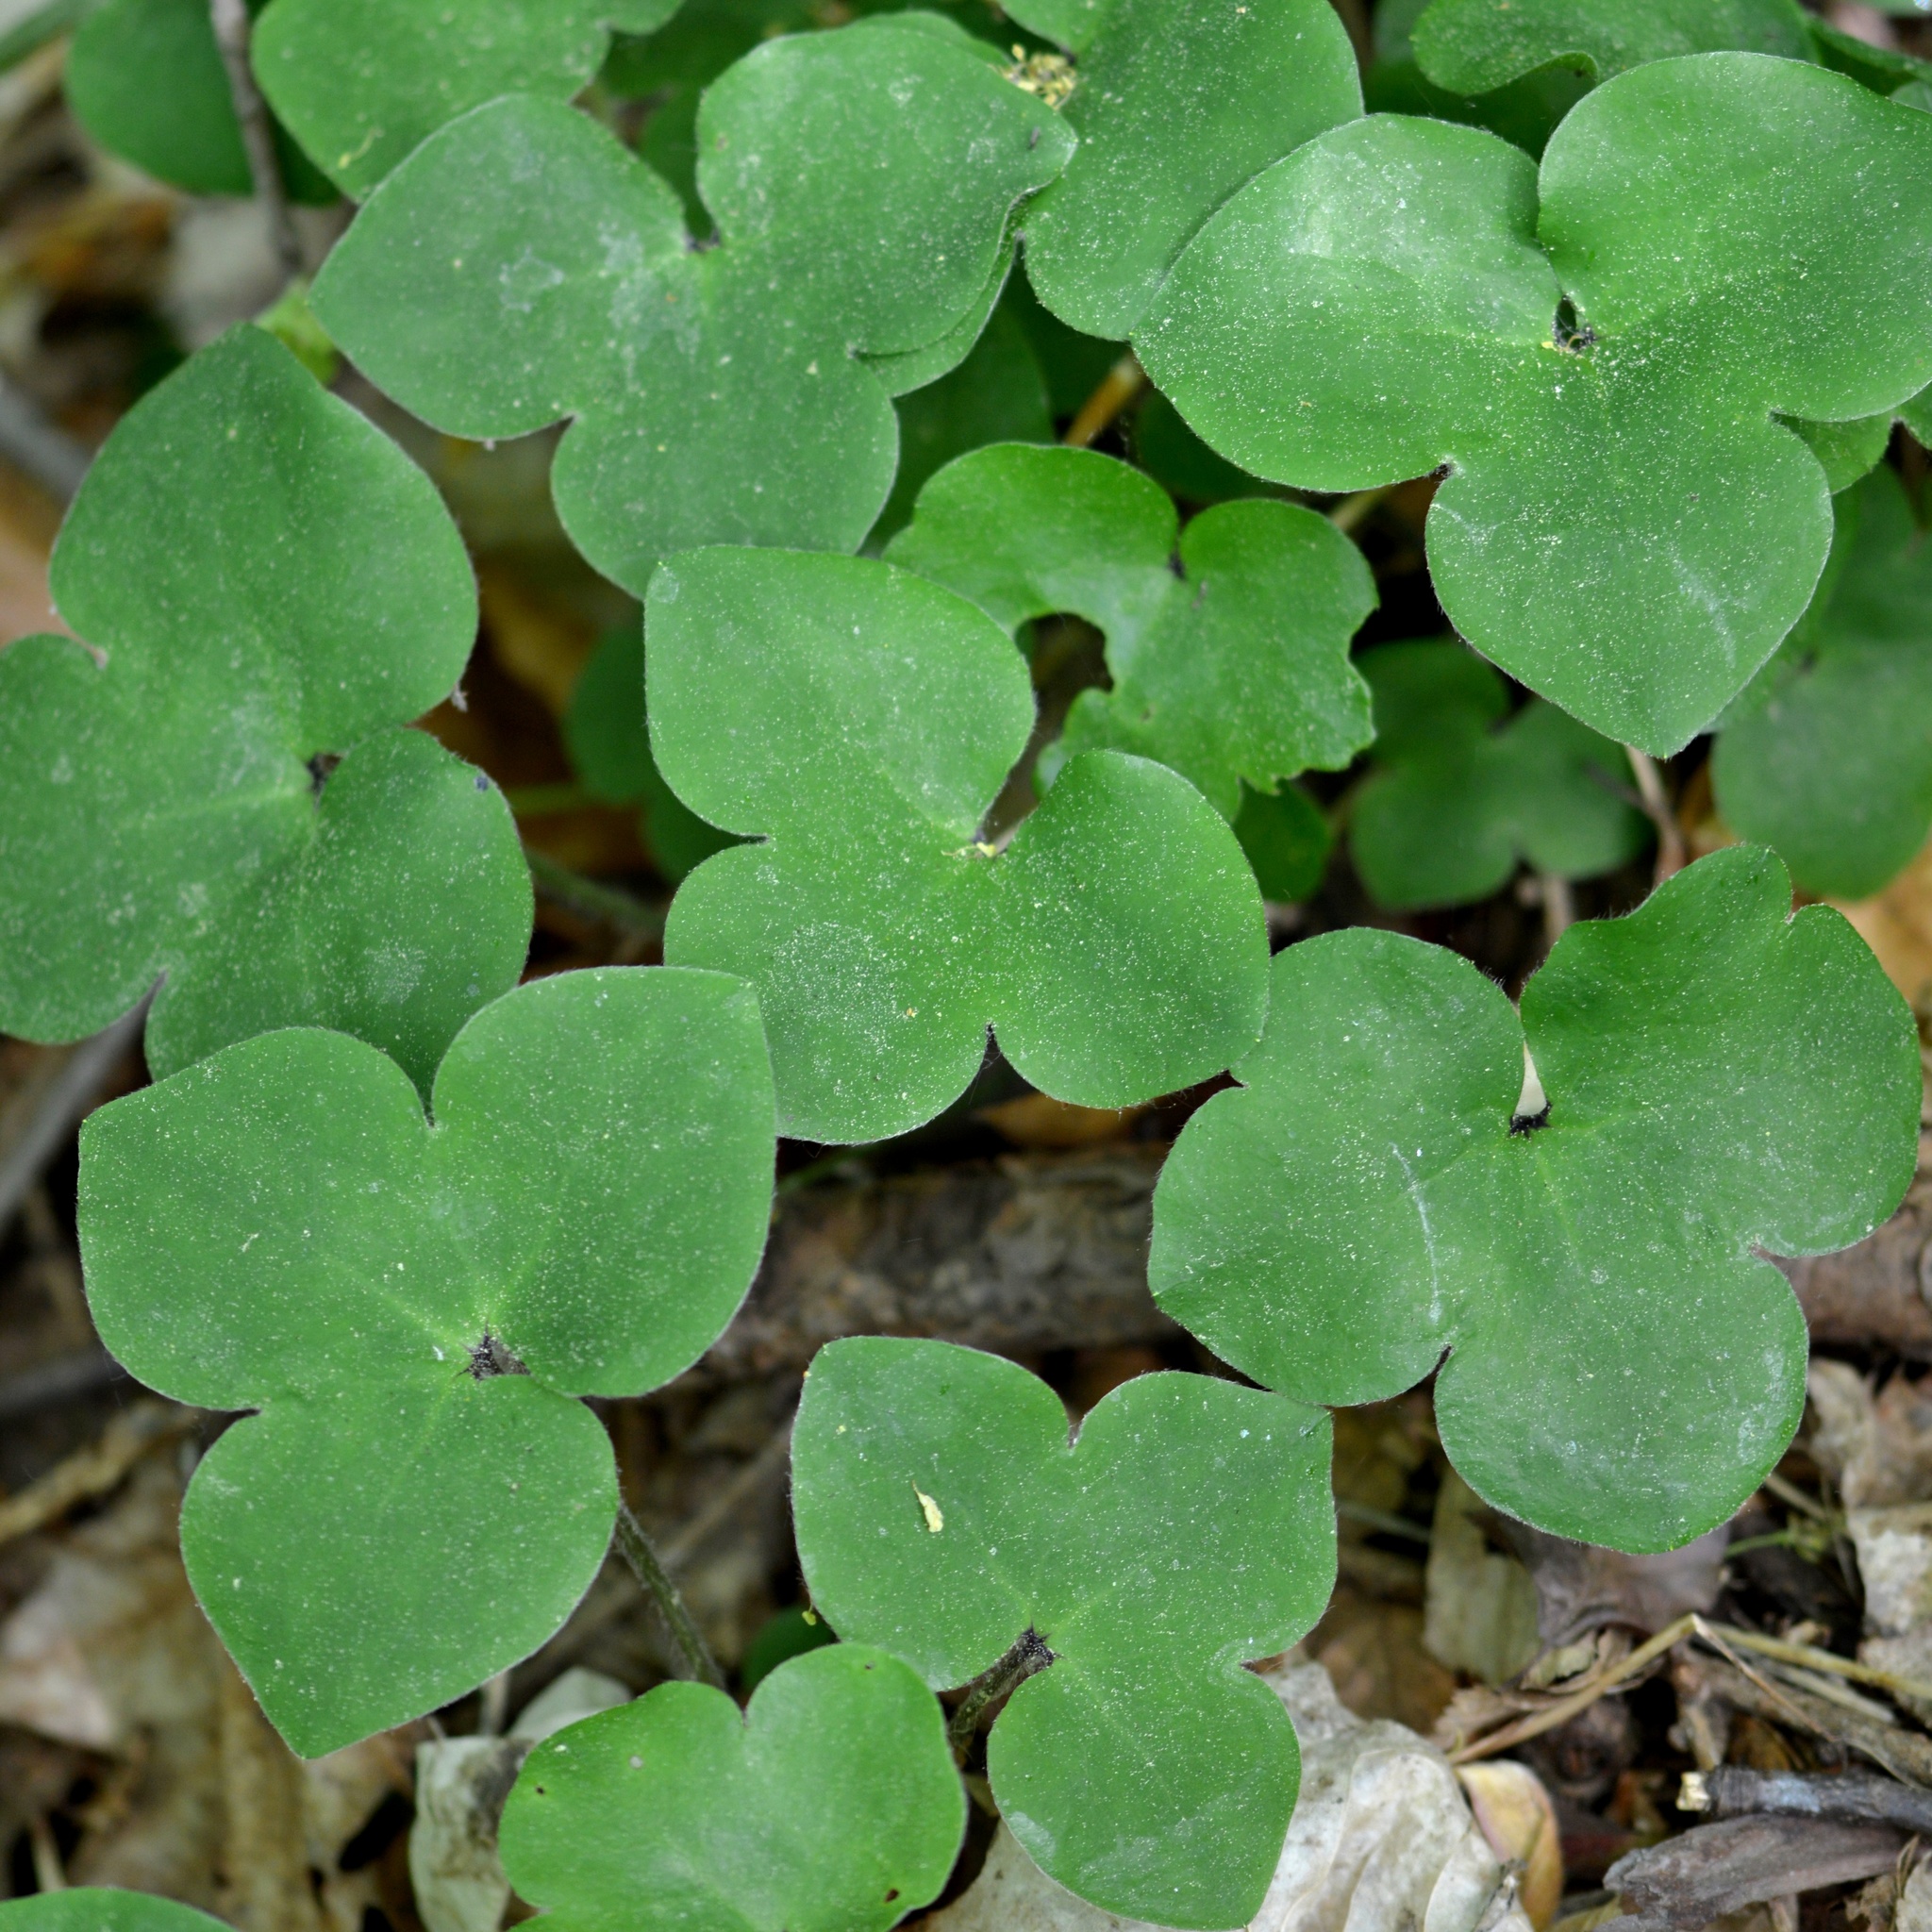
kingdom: Plantae
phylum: Tracheophyta
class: Magnoliopsida
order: Ranunculales
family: Ranunculaceae
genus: Hepatica
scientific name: Hepatica nobilis
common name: Liverleaf
